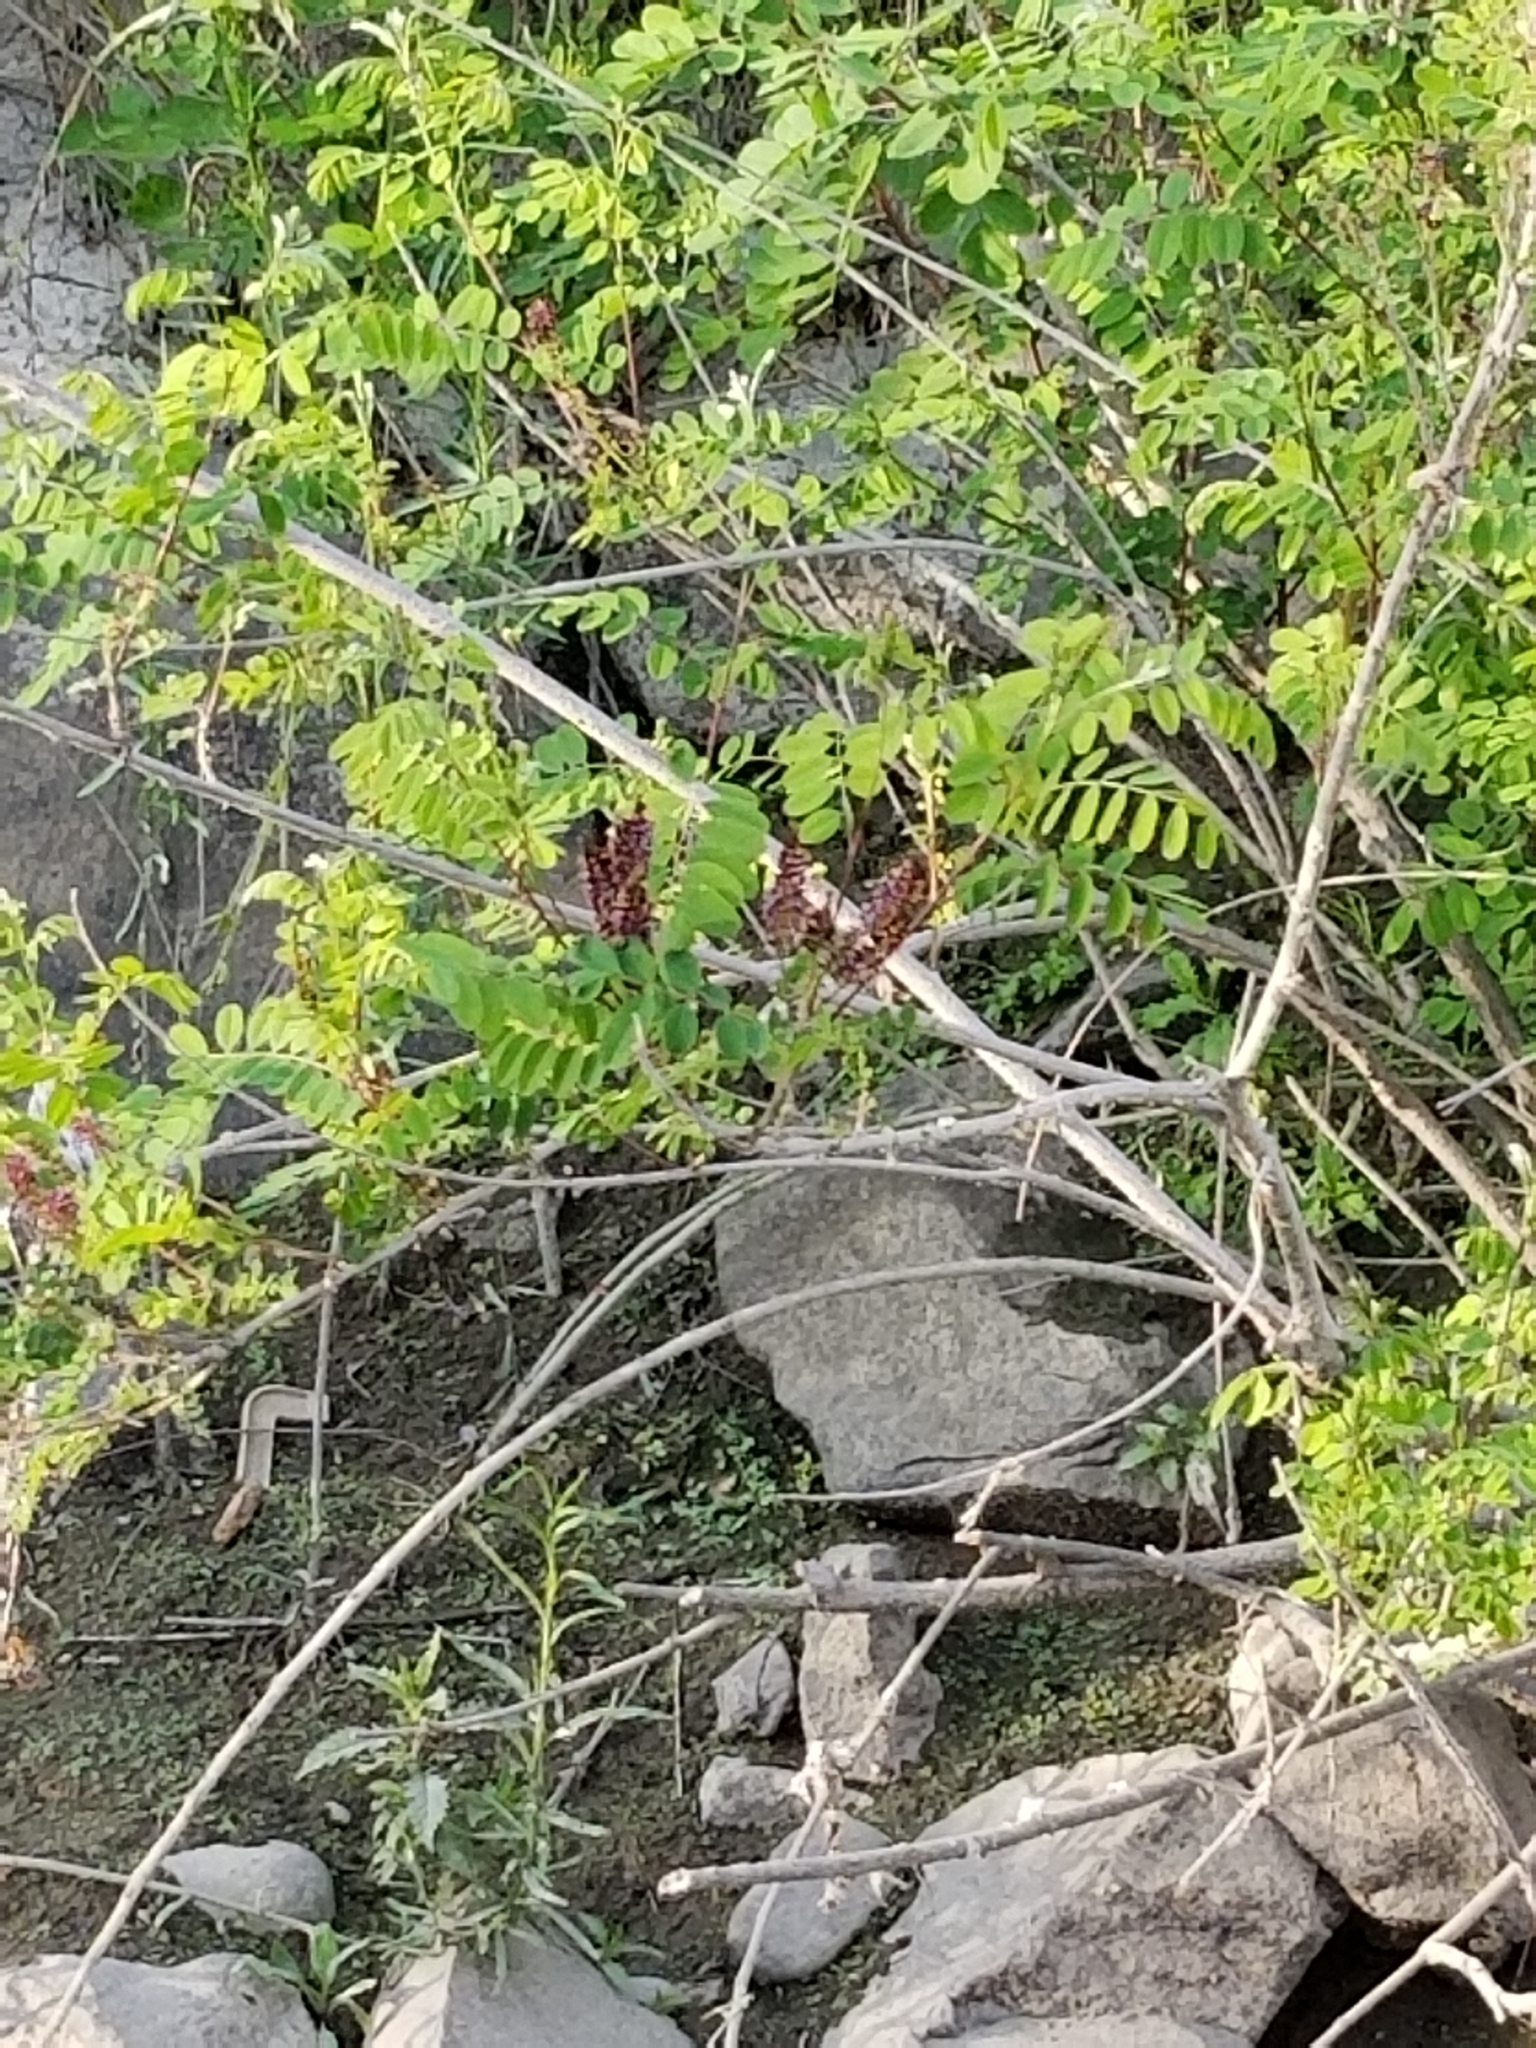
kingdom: Plantae
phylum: Tracheophyta
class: Magnoliopsida
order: Fabales
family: Fabaceae
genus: Amorpha
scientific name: Amorpha fruticosa
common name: False indigo
